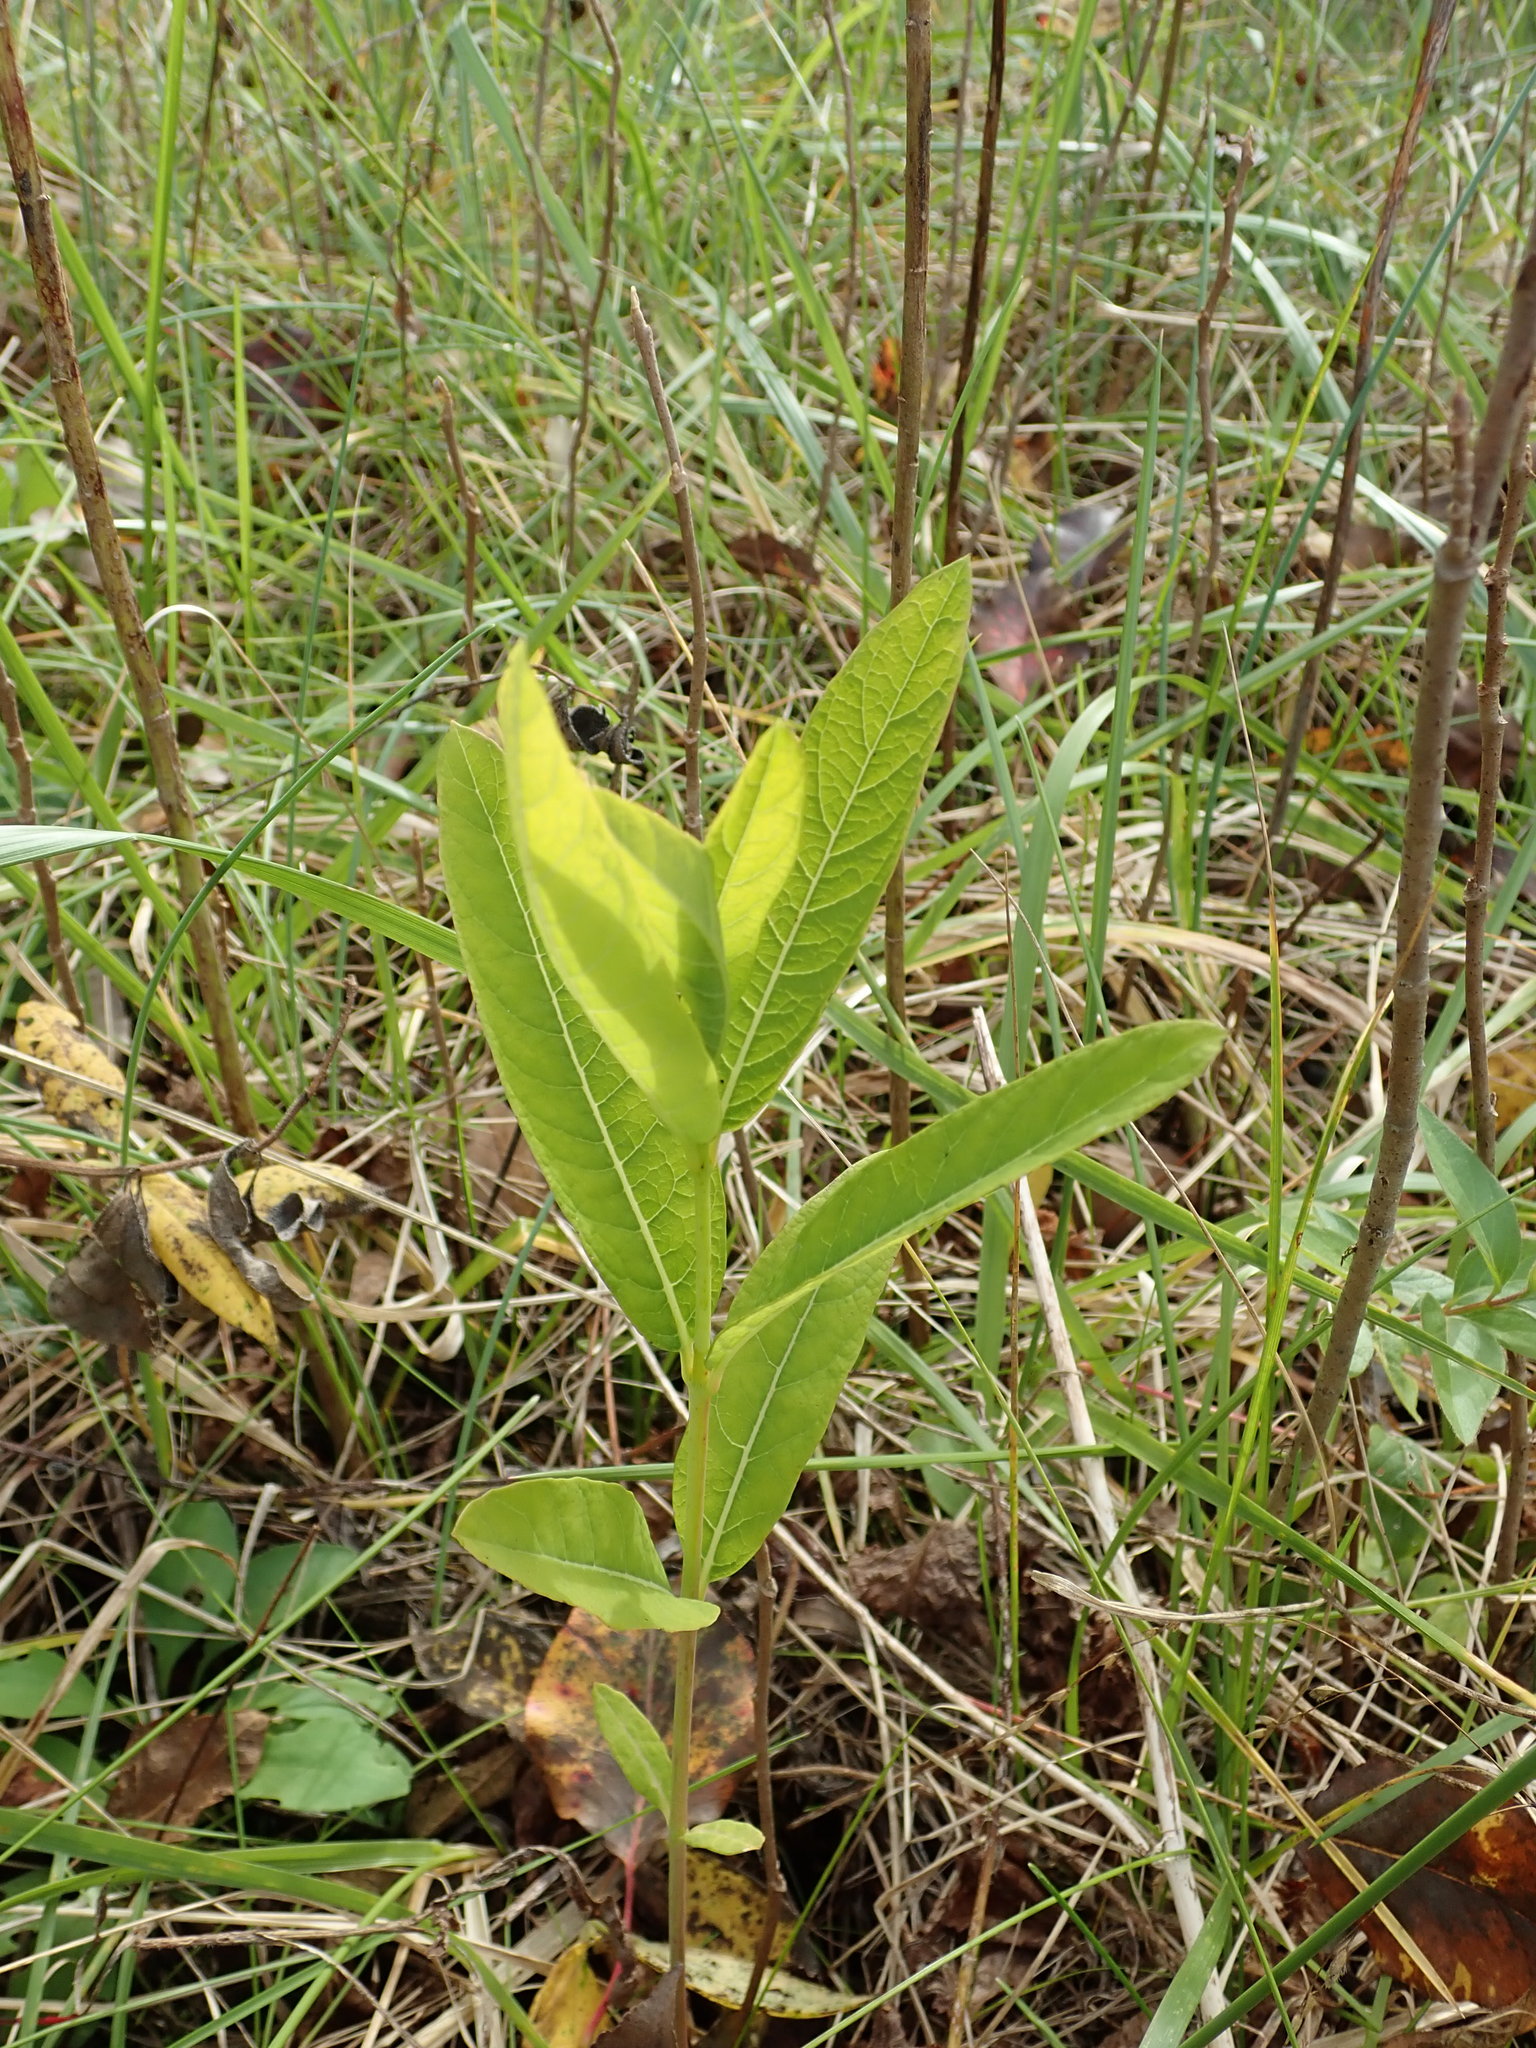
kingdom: Plantae
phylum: Tracheophyta
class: Magnoliopsida
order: Gentianales
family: Apocynaceae
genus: Apocynum
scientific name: Apocynum cannabinum
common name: Hemp dogbane
